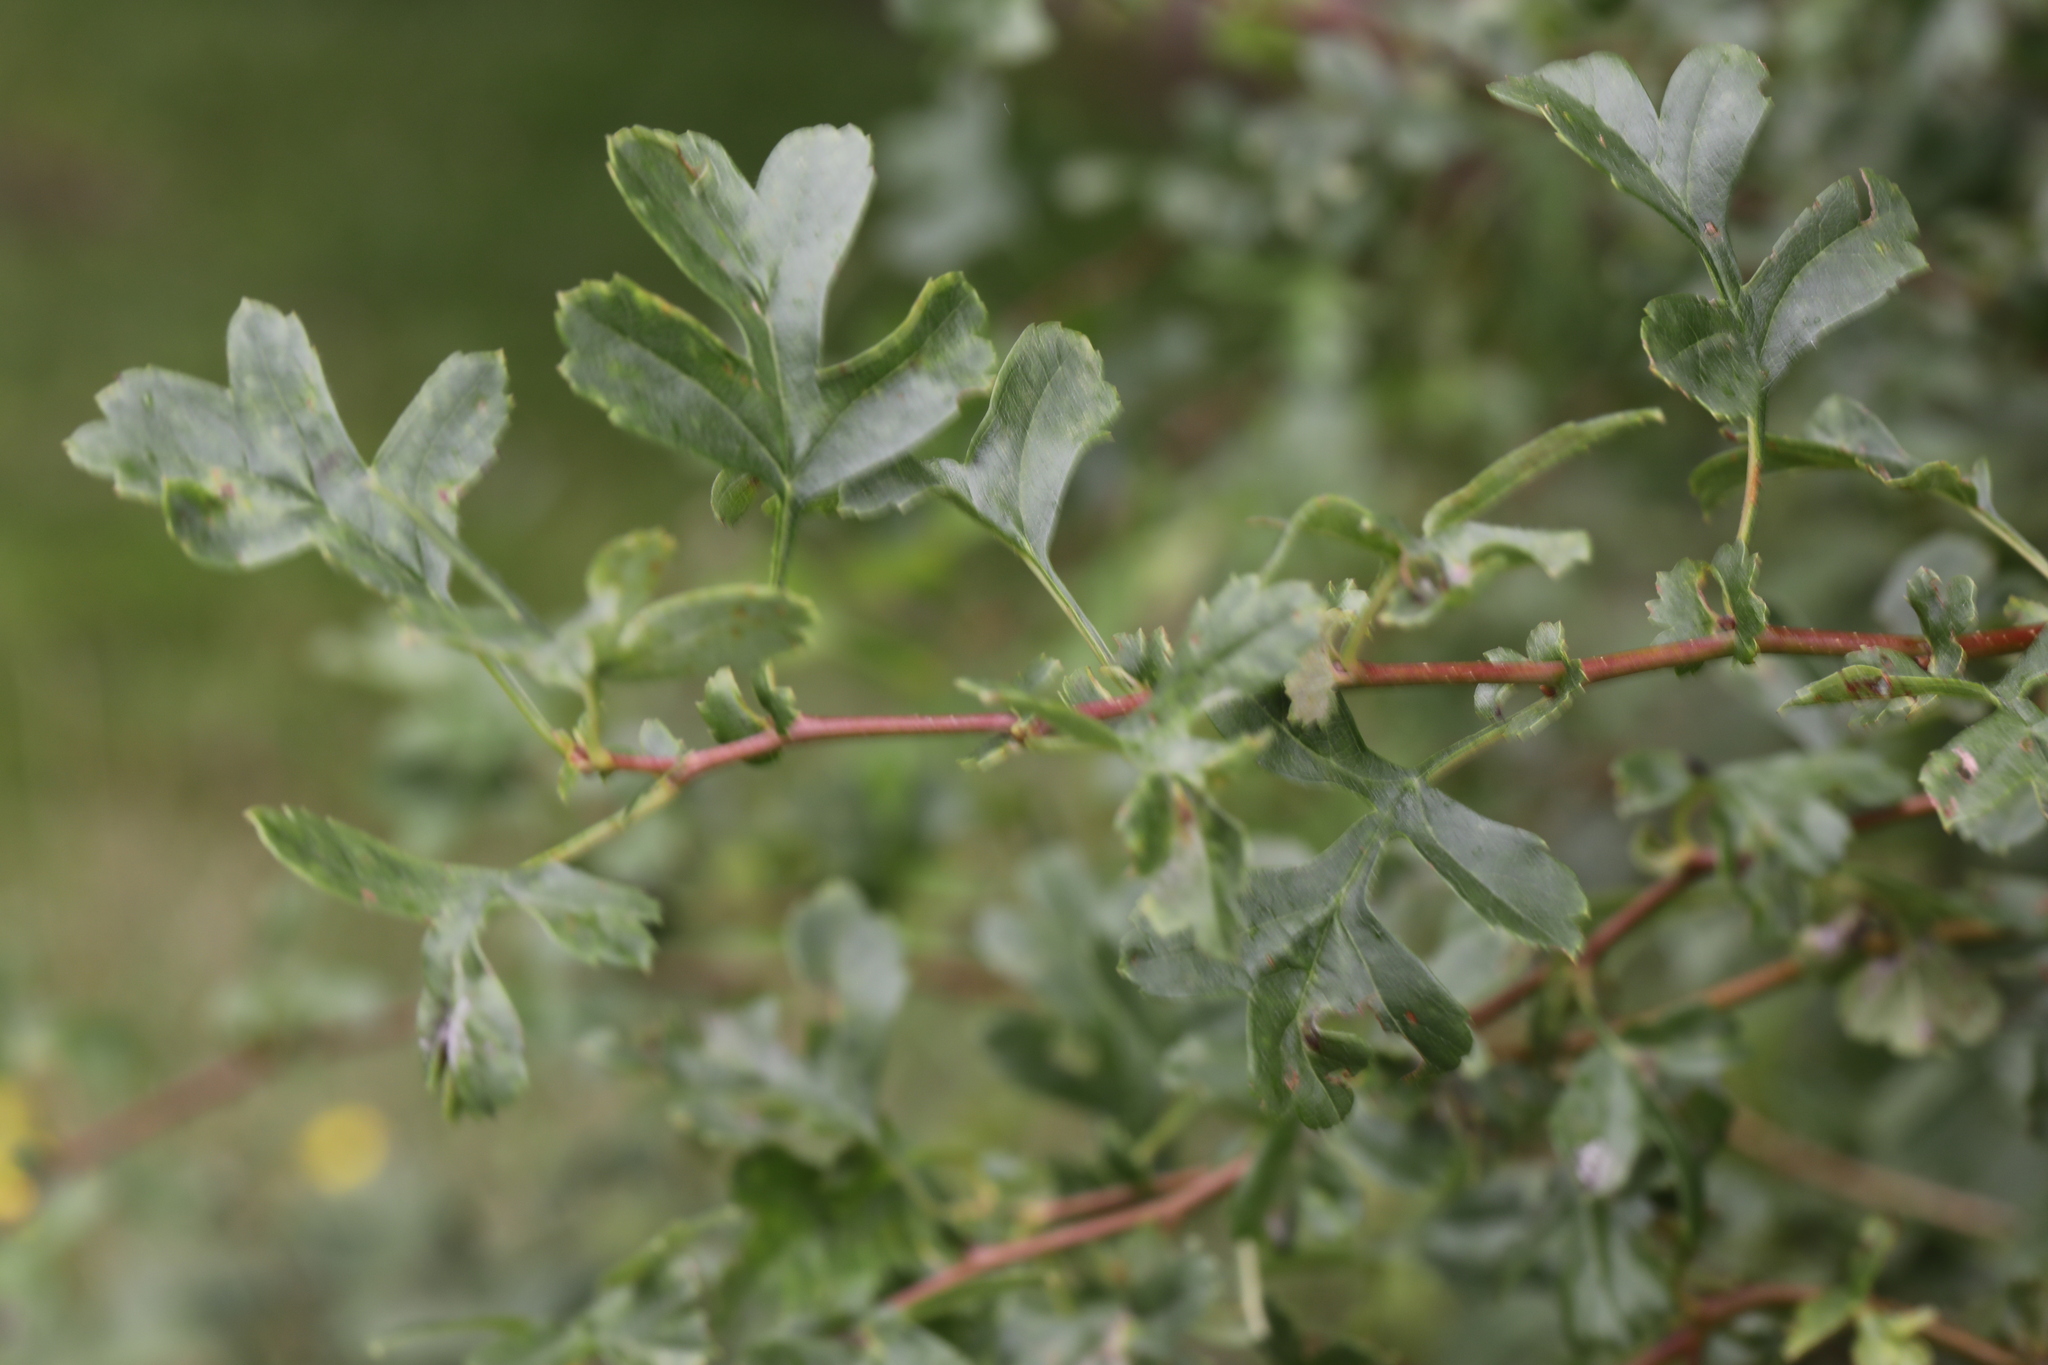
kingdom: Plantae
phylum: Tracheophyta
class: Magnoliopsida
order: Rosales
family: Rosaceae
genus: Crataegus
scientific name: Crataegus monogyna
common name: Hawthorn
